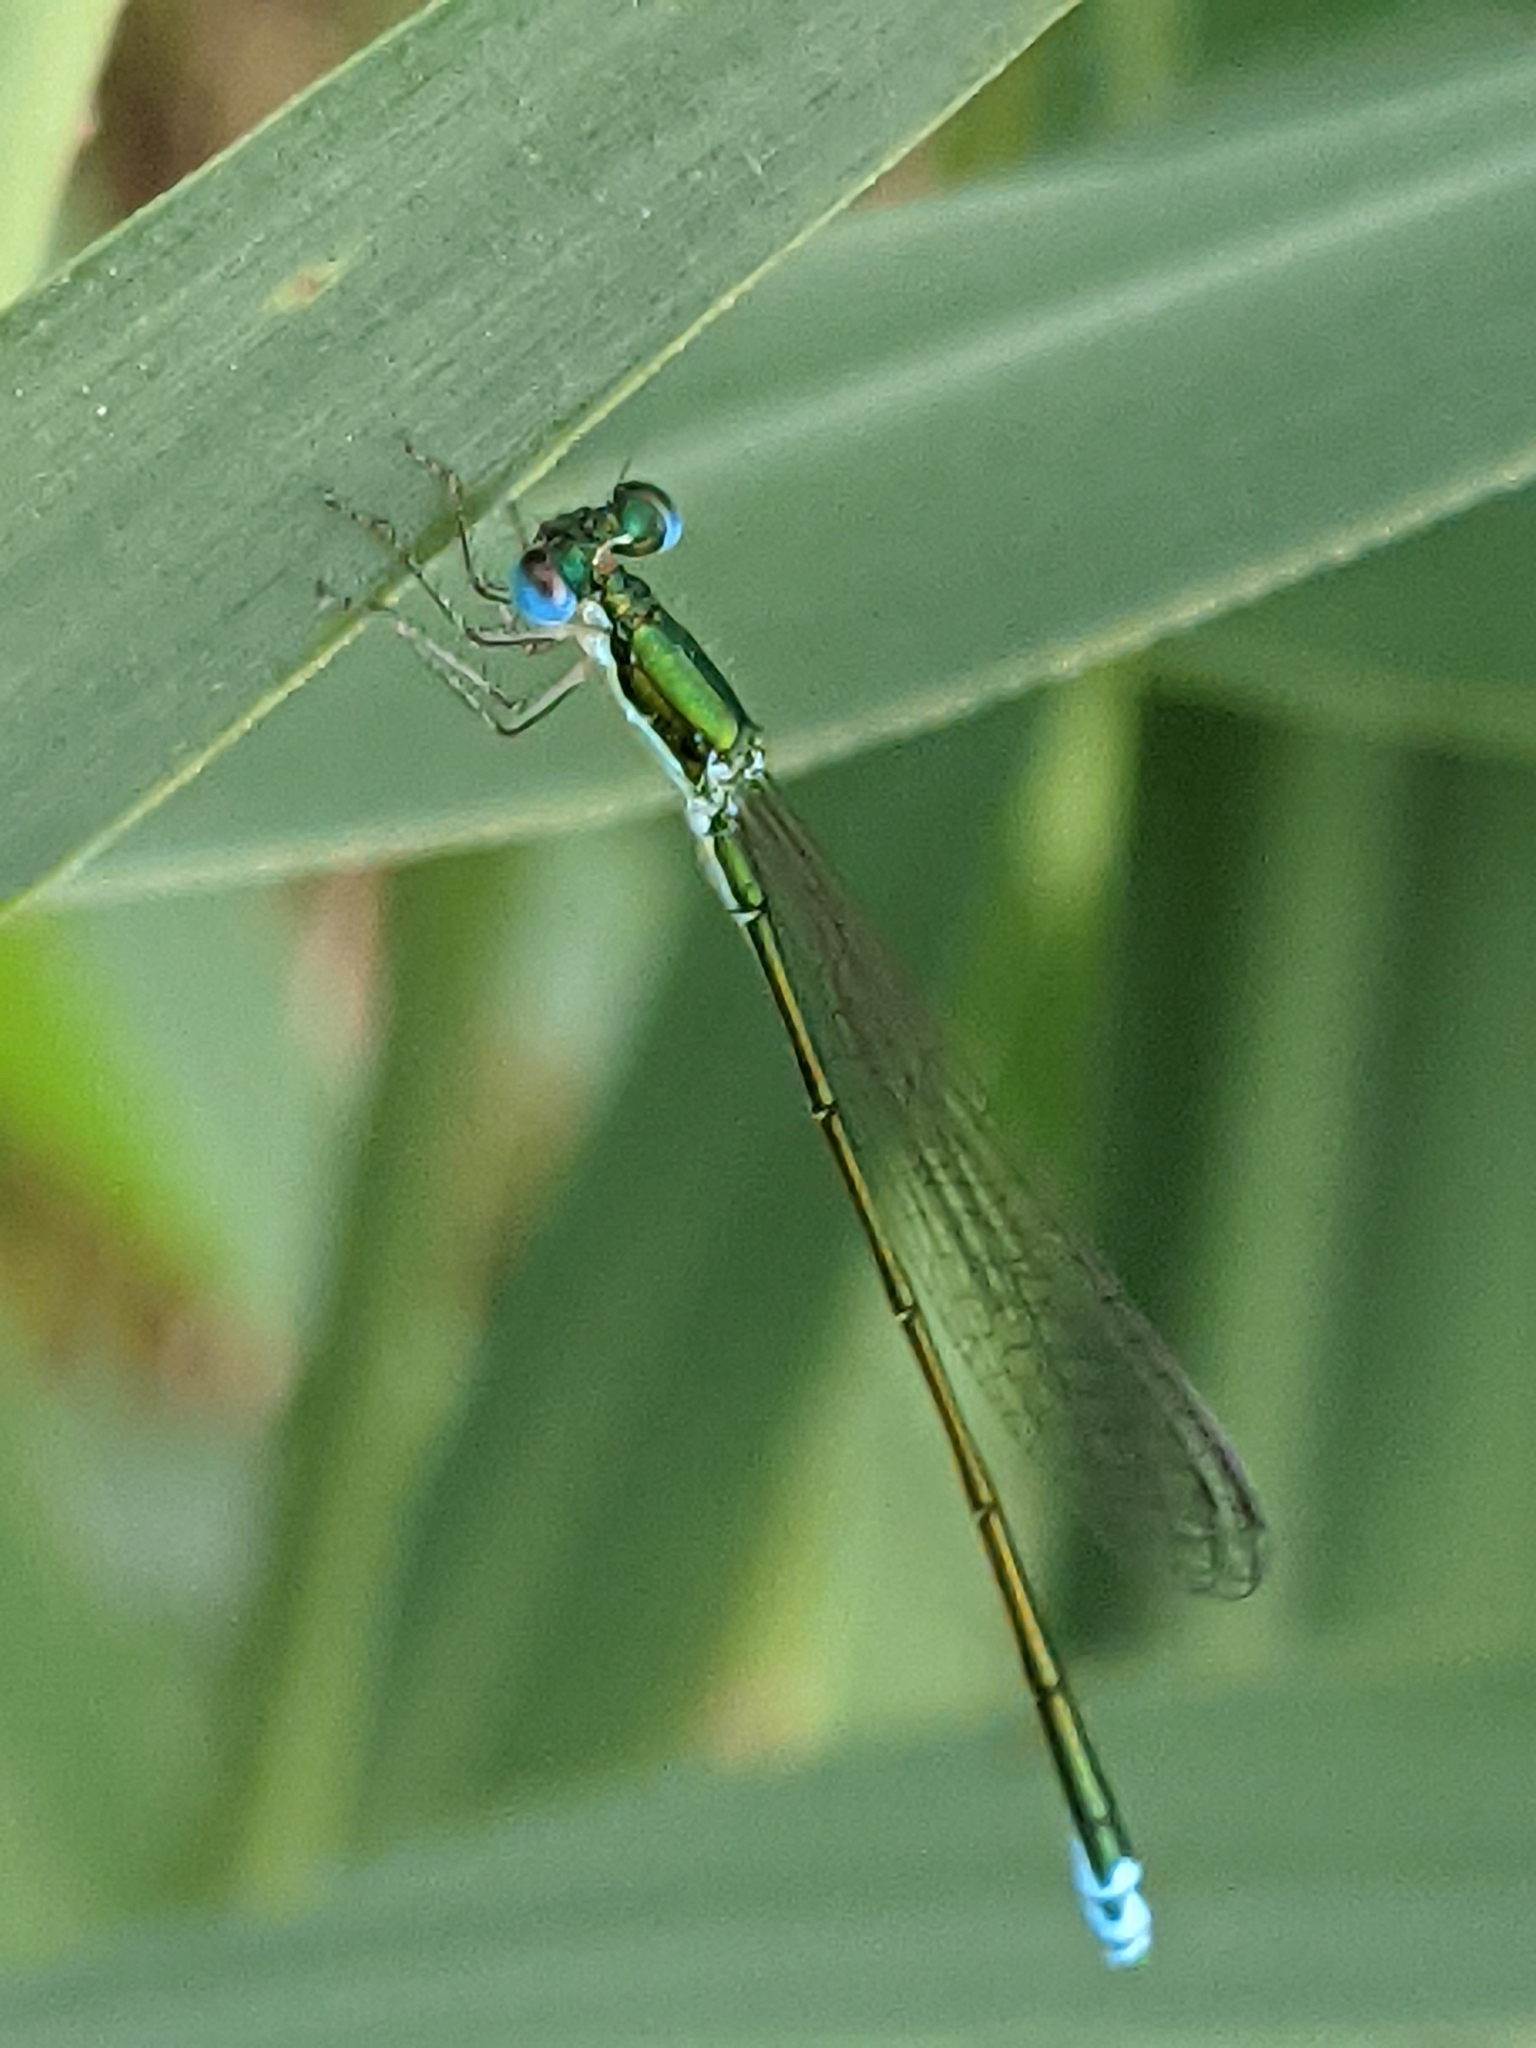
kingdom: Animalia
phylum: Arthropoda
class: Insecta
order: Odonata
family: Coenagrionidae
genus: Nehalennia
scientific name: Nehalennia irene
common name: Sedge sprite
